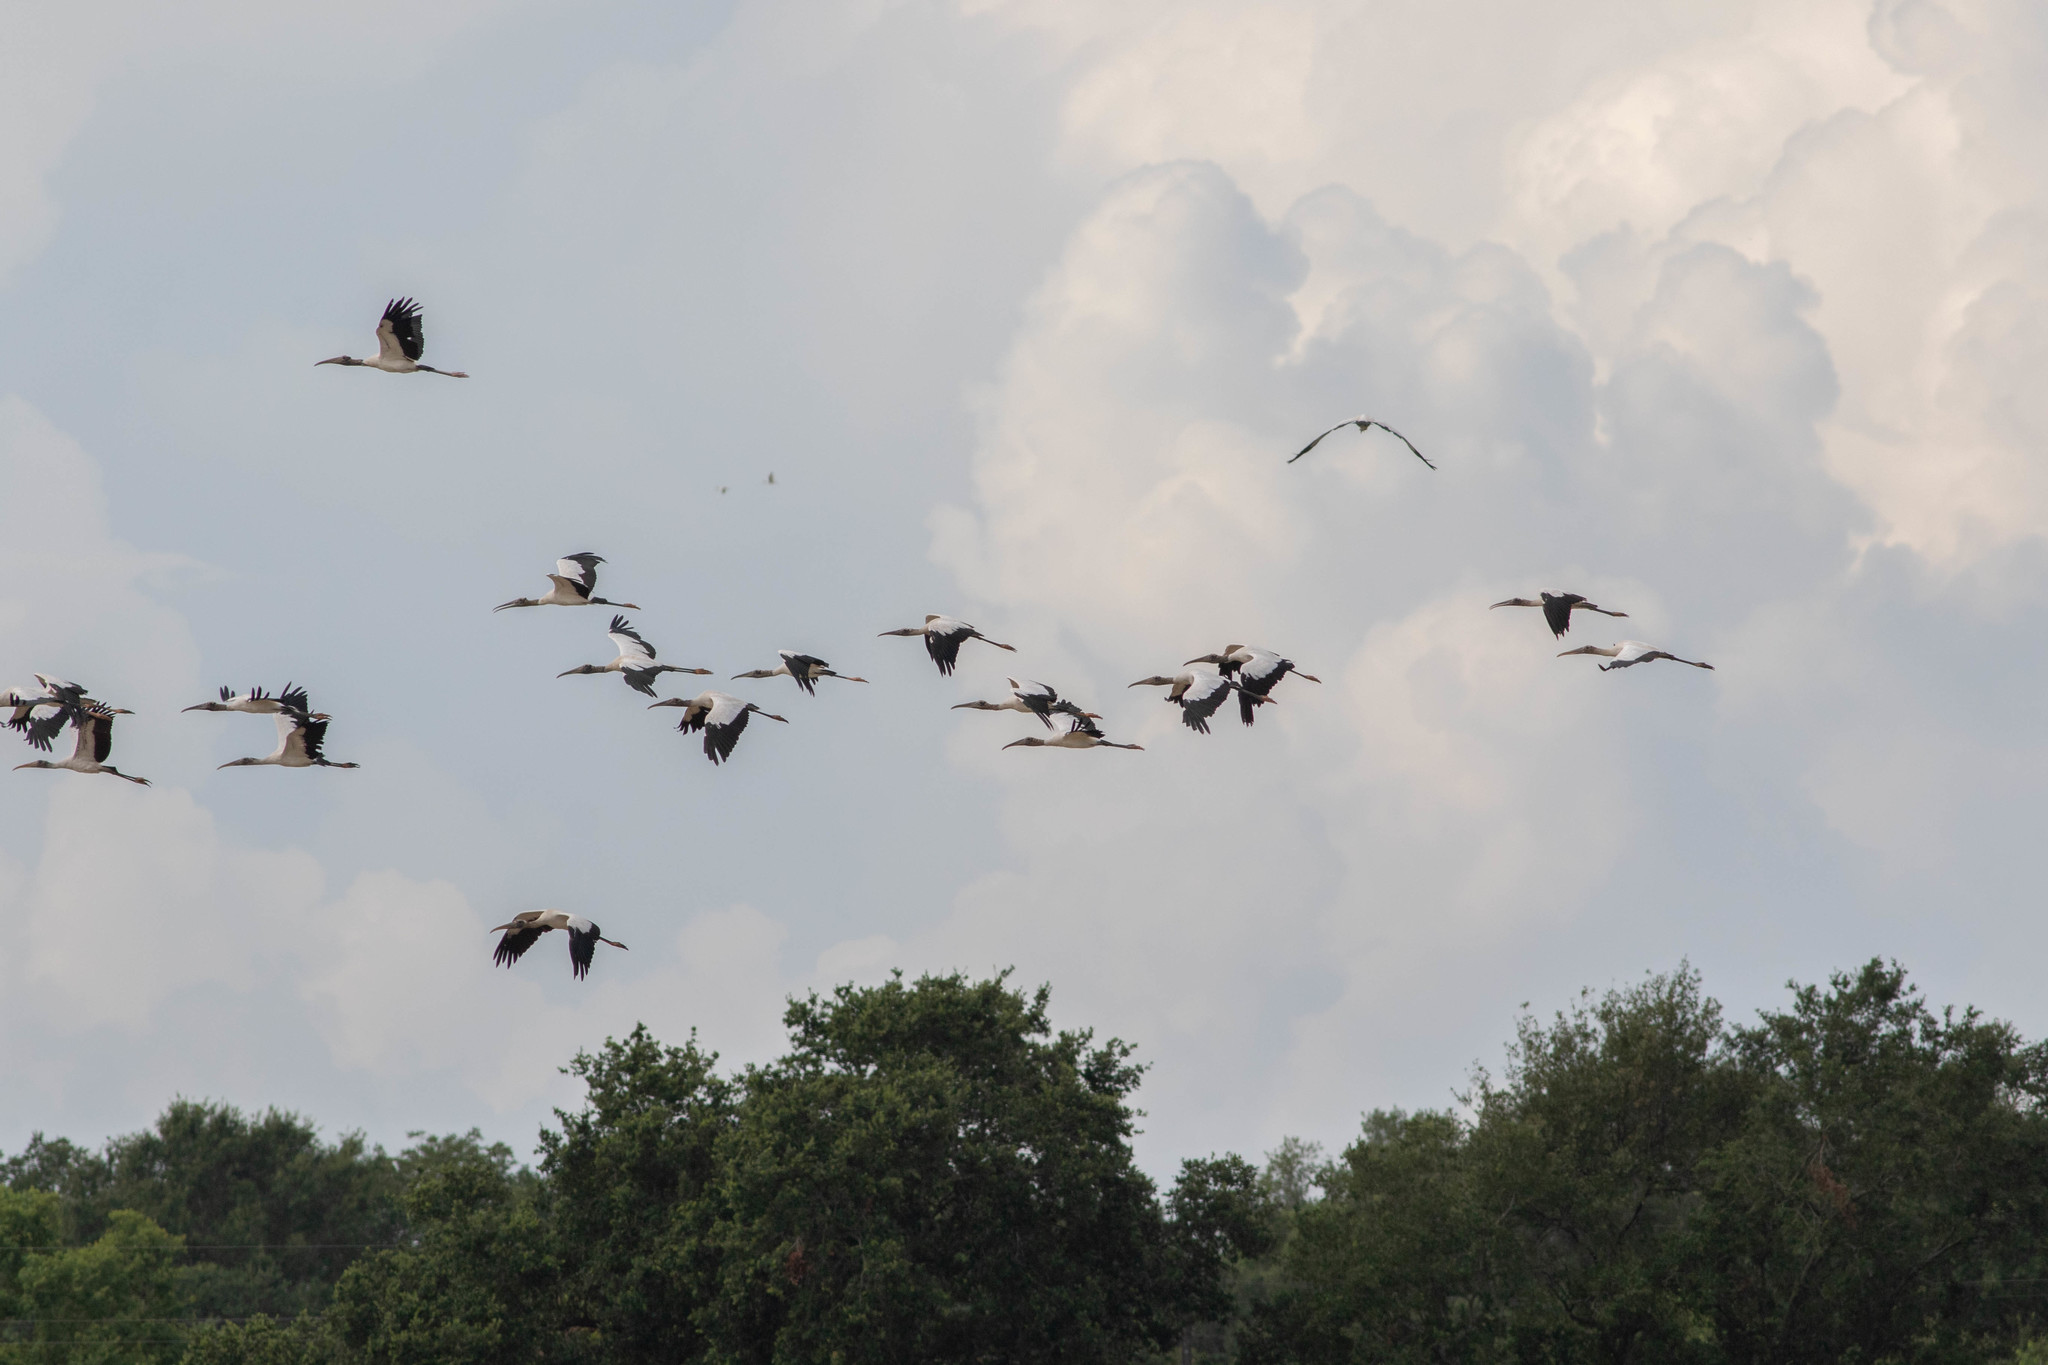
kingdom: Animalia
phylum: Chordata
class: Aves
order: Ciconiiformes
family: Ciconiidae
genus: Mycteria
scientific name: Mycteria americana
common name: Wood stork
